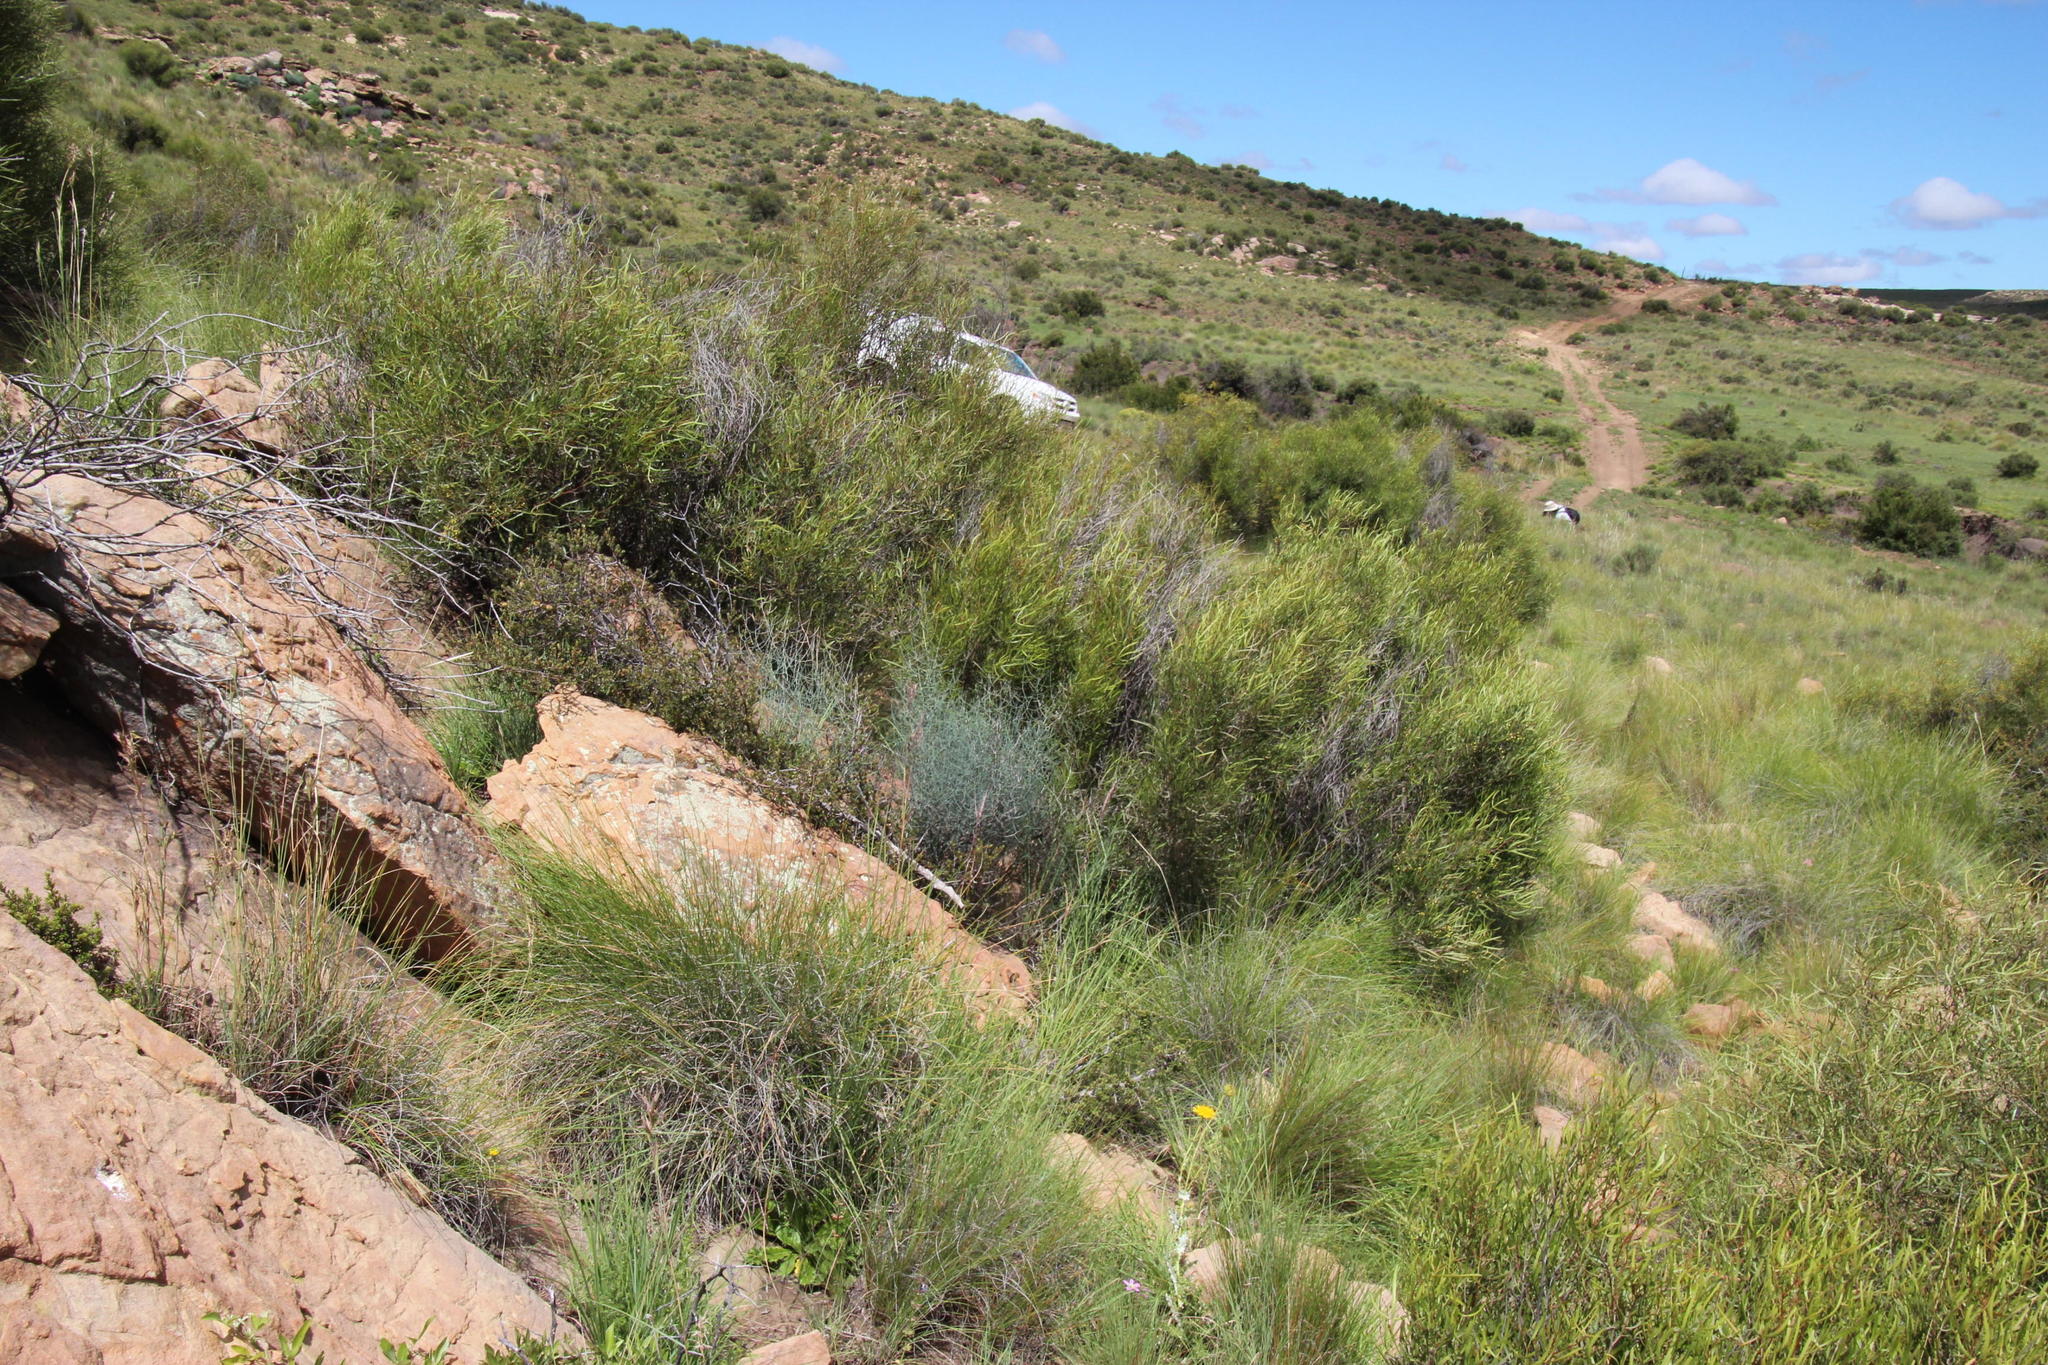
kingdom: Plantae
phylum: Tracheophyta
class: Liliopsida
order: Asparagales
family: Asparagaceae
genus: Asparagus
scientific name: Asparagus denudatus
